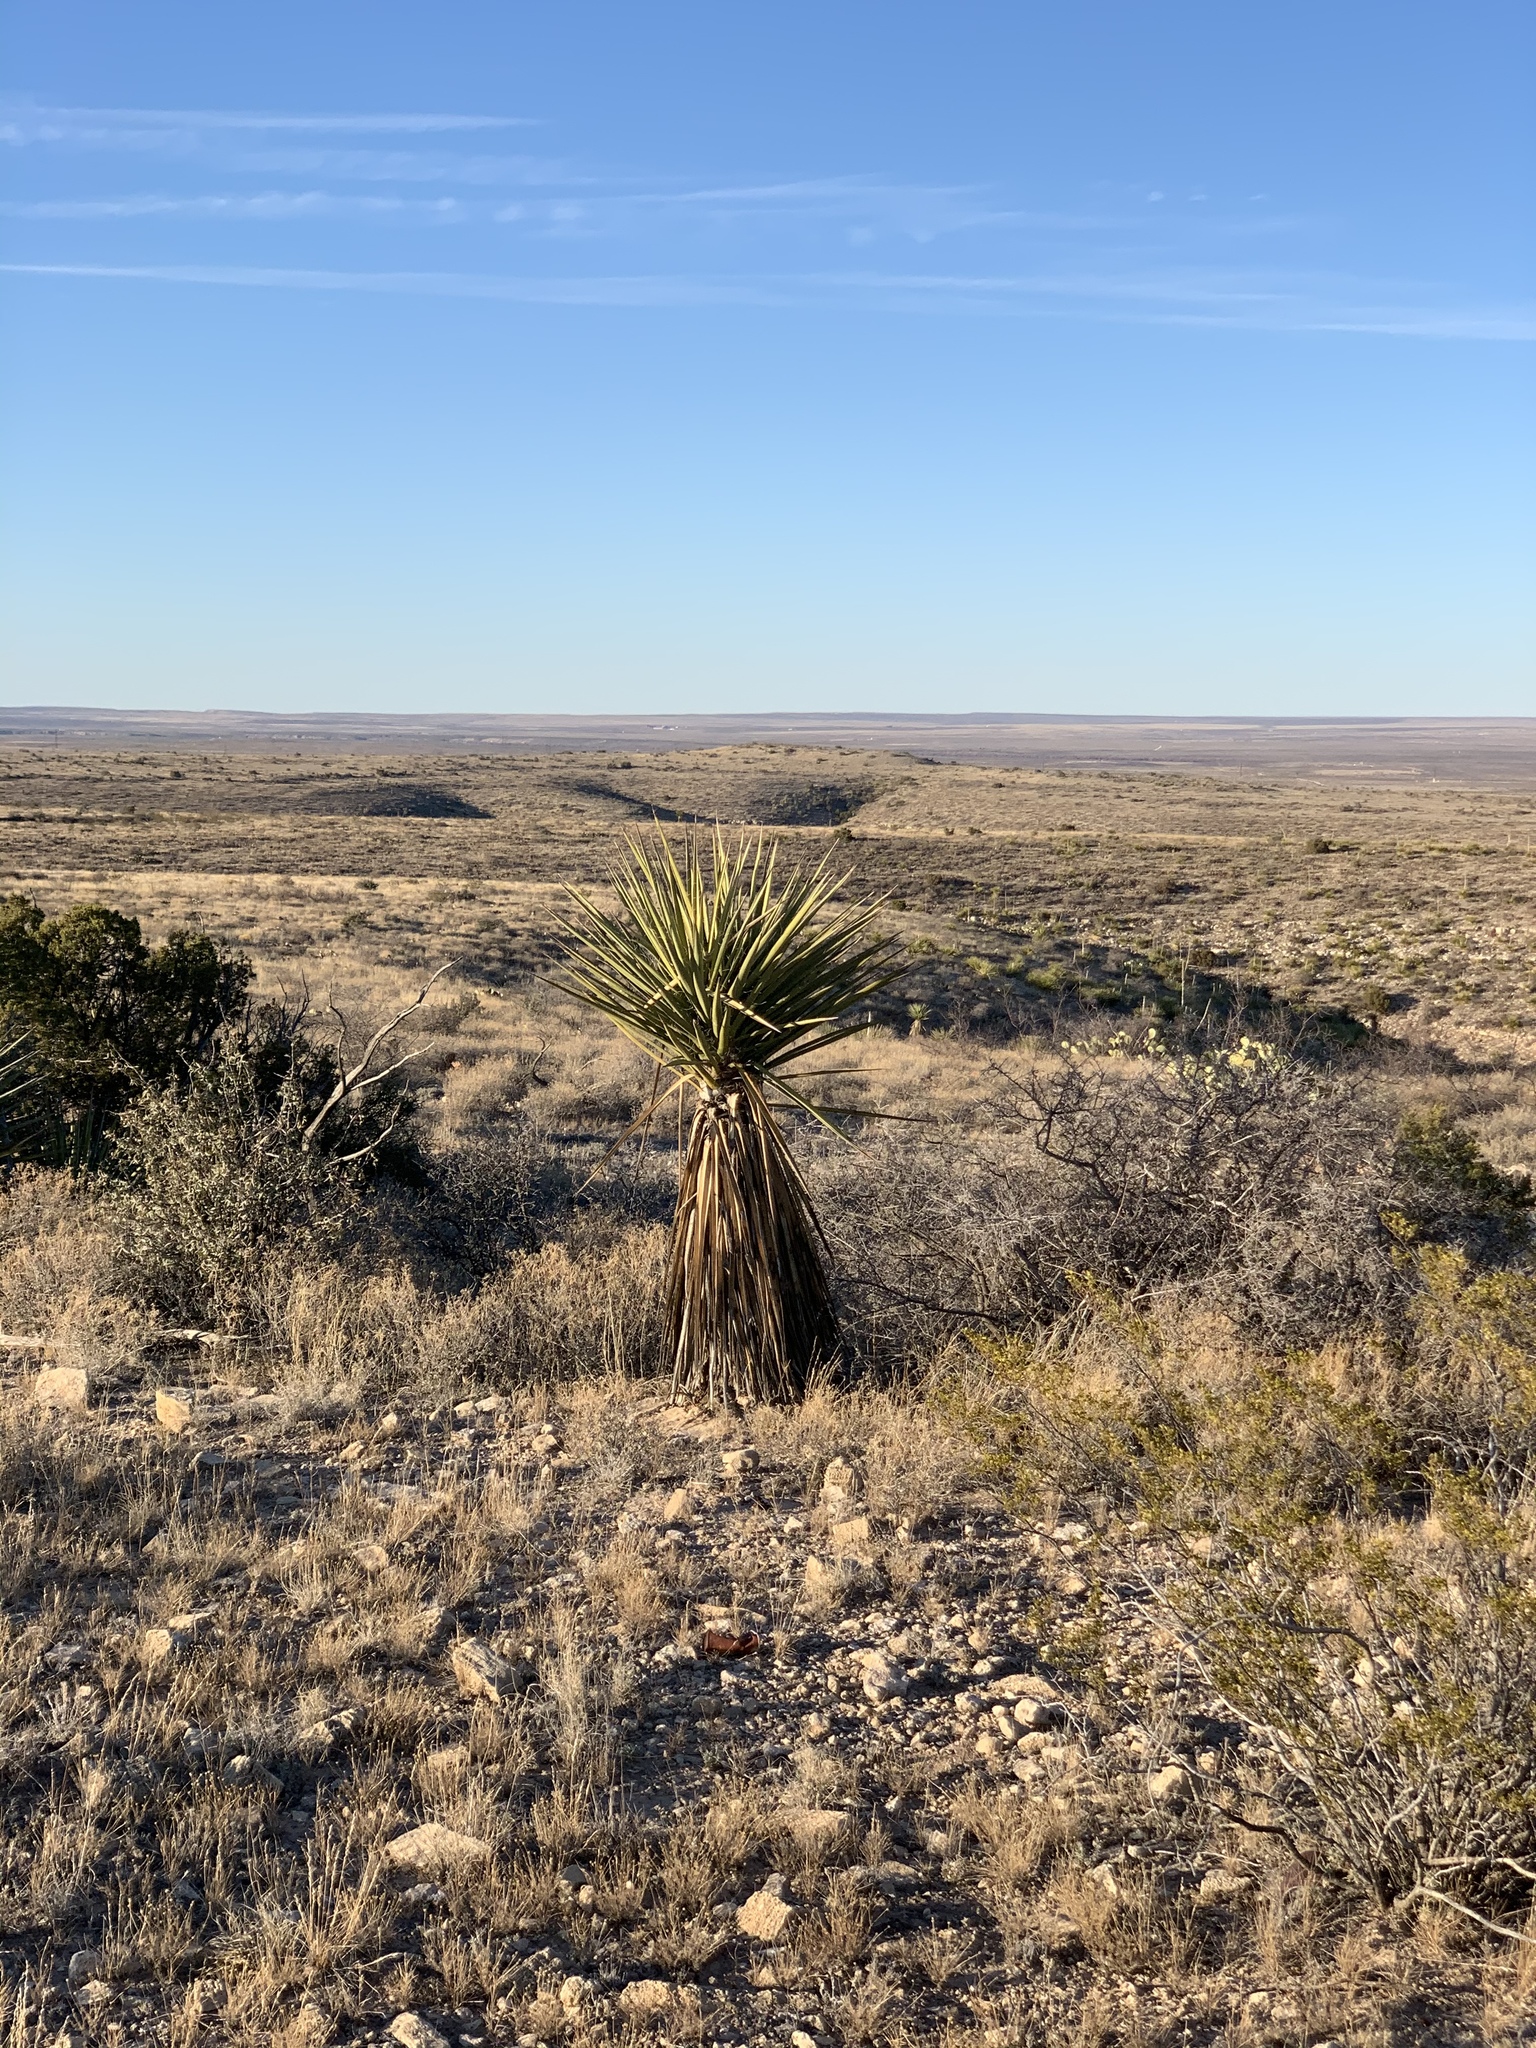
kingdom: Plantae
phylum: Tracheophyta
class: Liliopsida
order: Asparagales
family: Asparagaceae
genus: Yucca
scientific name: Yucca treculiana
